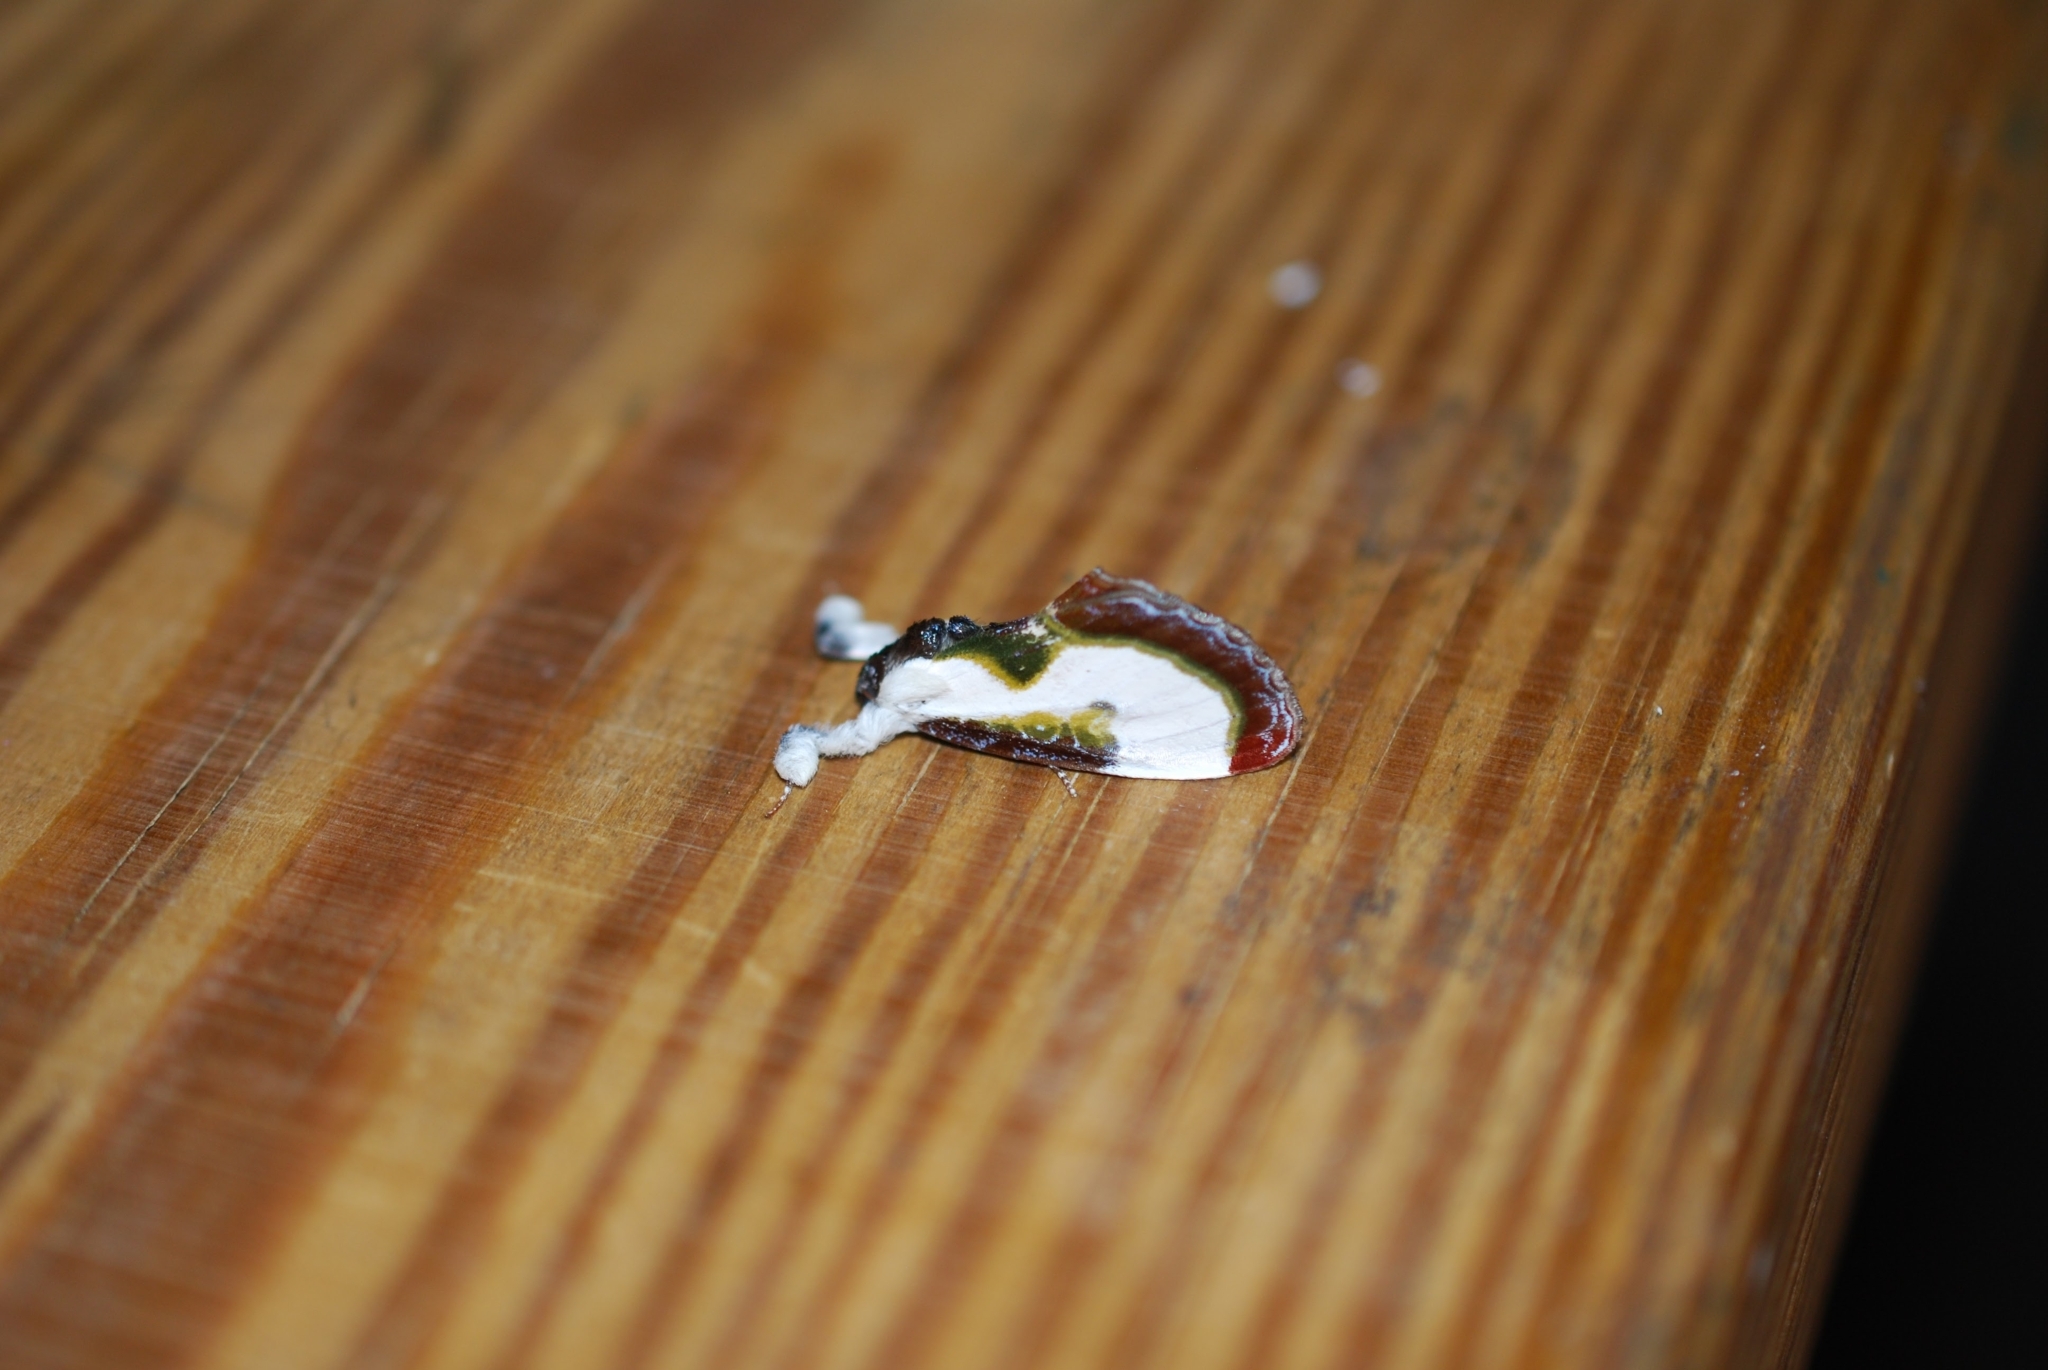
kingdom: Animalia
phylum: Arthropoda
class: Insecta
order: Lepidoptera
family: Noctuidae
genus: Eudryas
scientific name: Eudryas grata
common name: Beautiful wood-nymph
